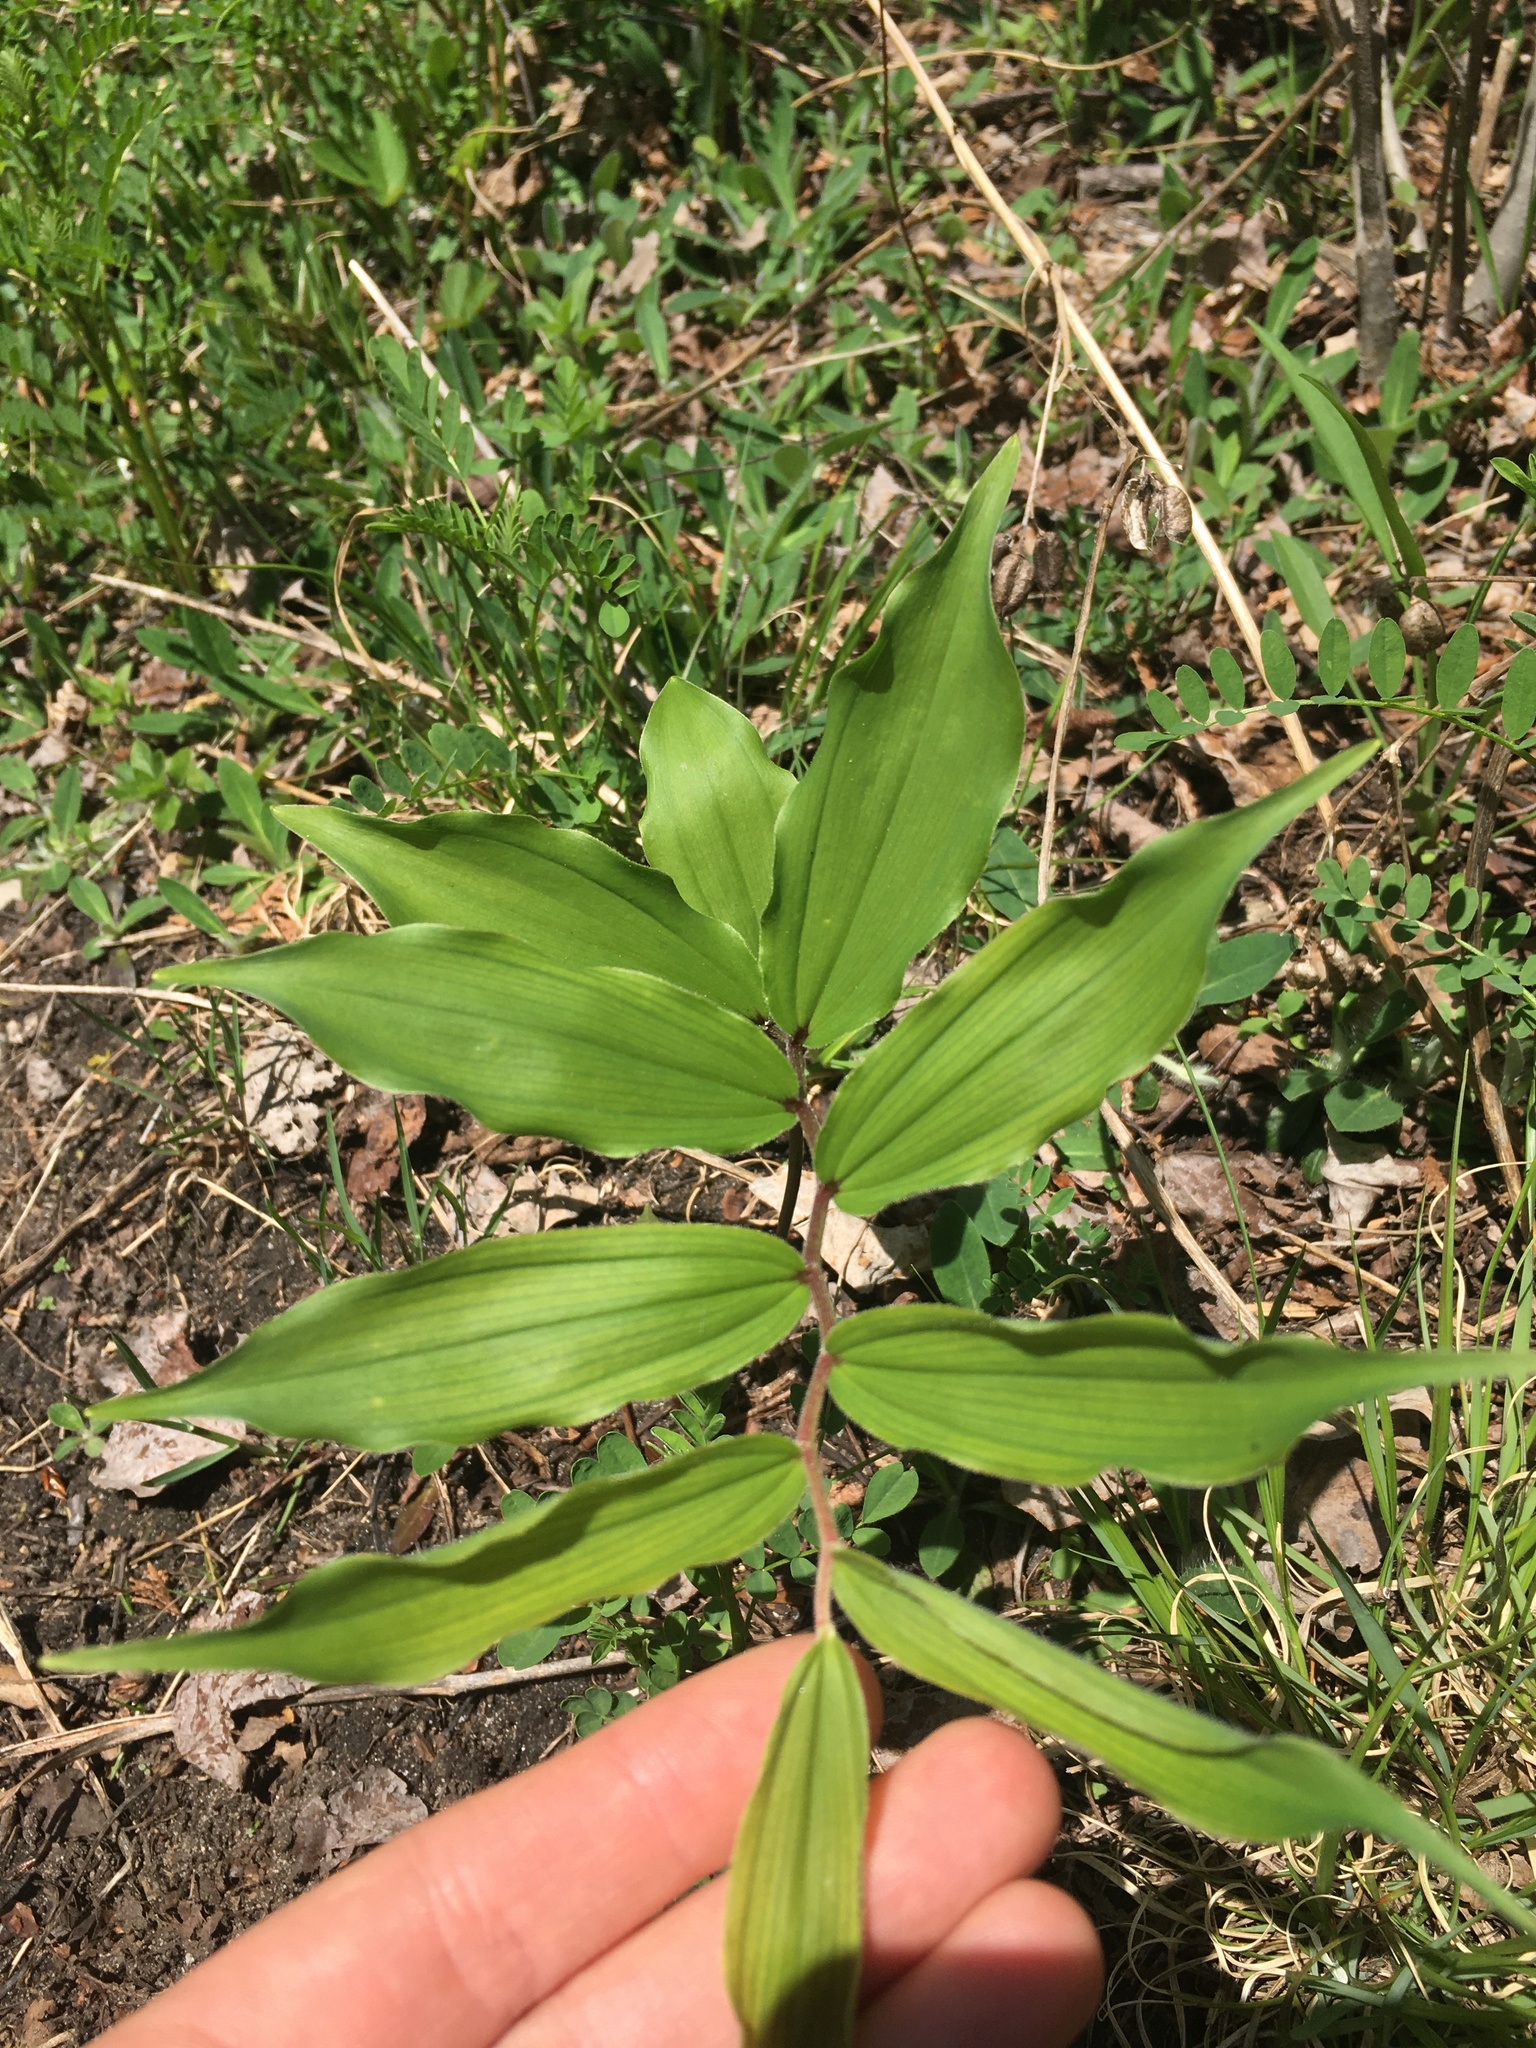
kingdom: Plantae
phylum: Tracheophyta
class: Liliopsida
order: Asparagales
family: Asparagaceae
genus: Maianthemum
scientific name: Maianthemum racemosum
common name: False spikenard
